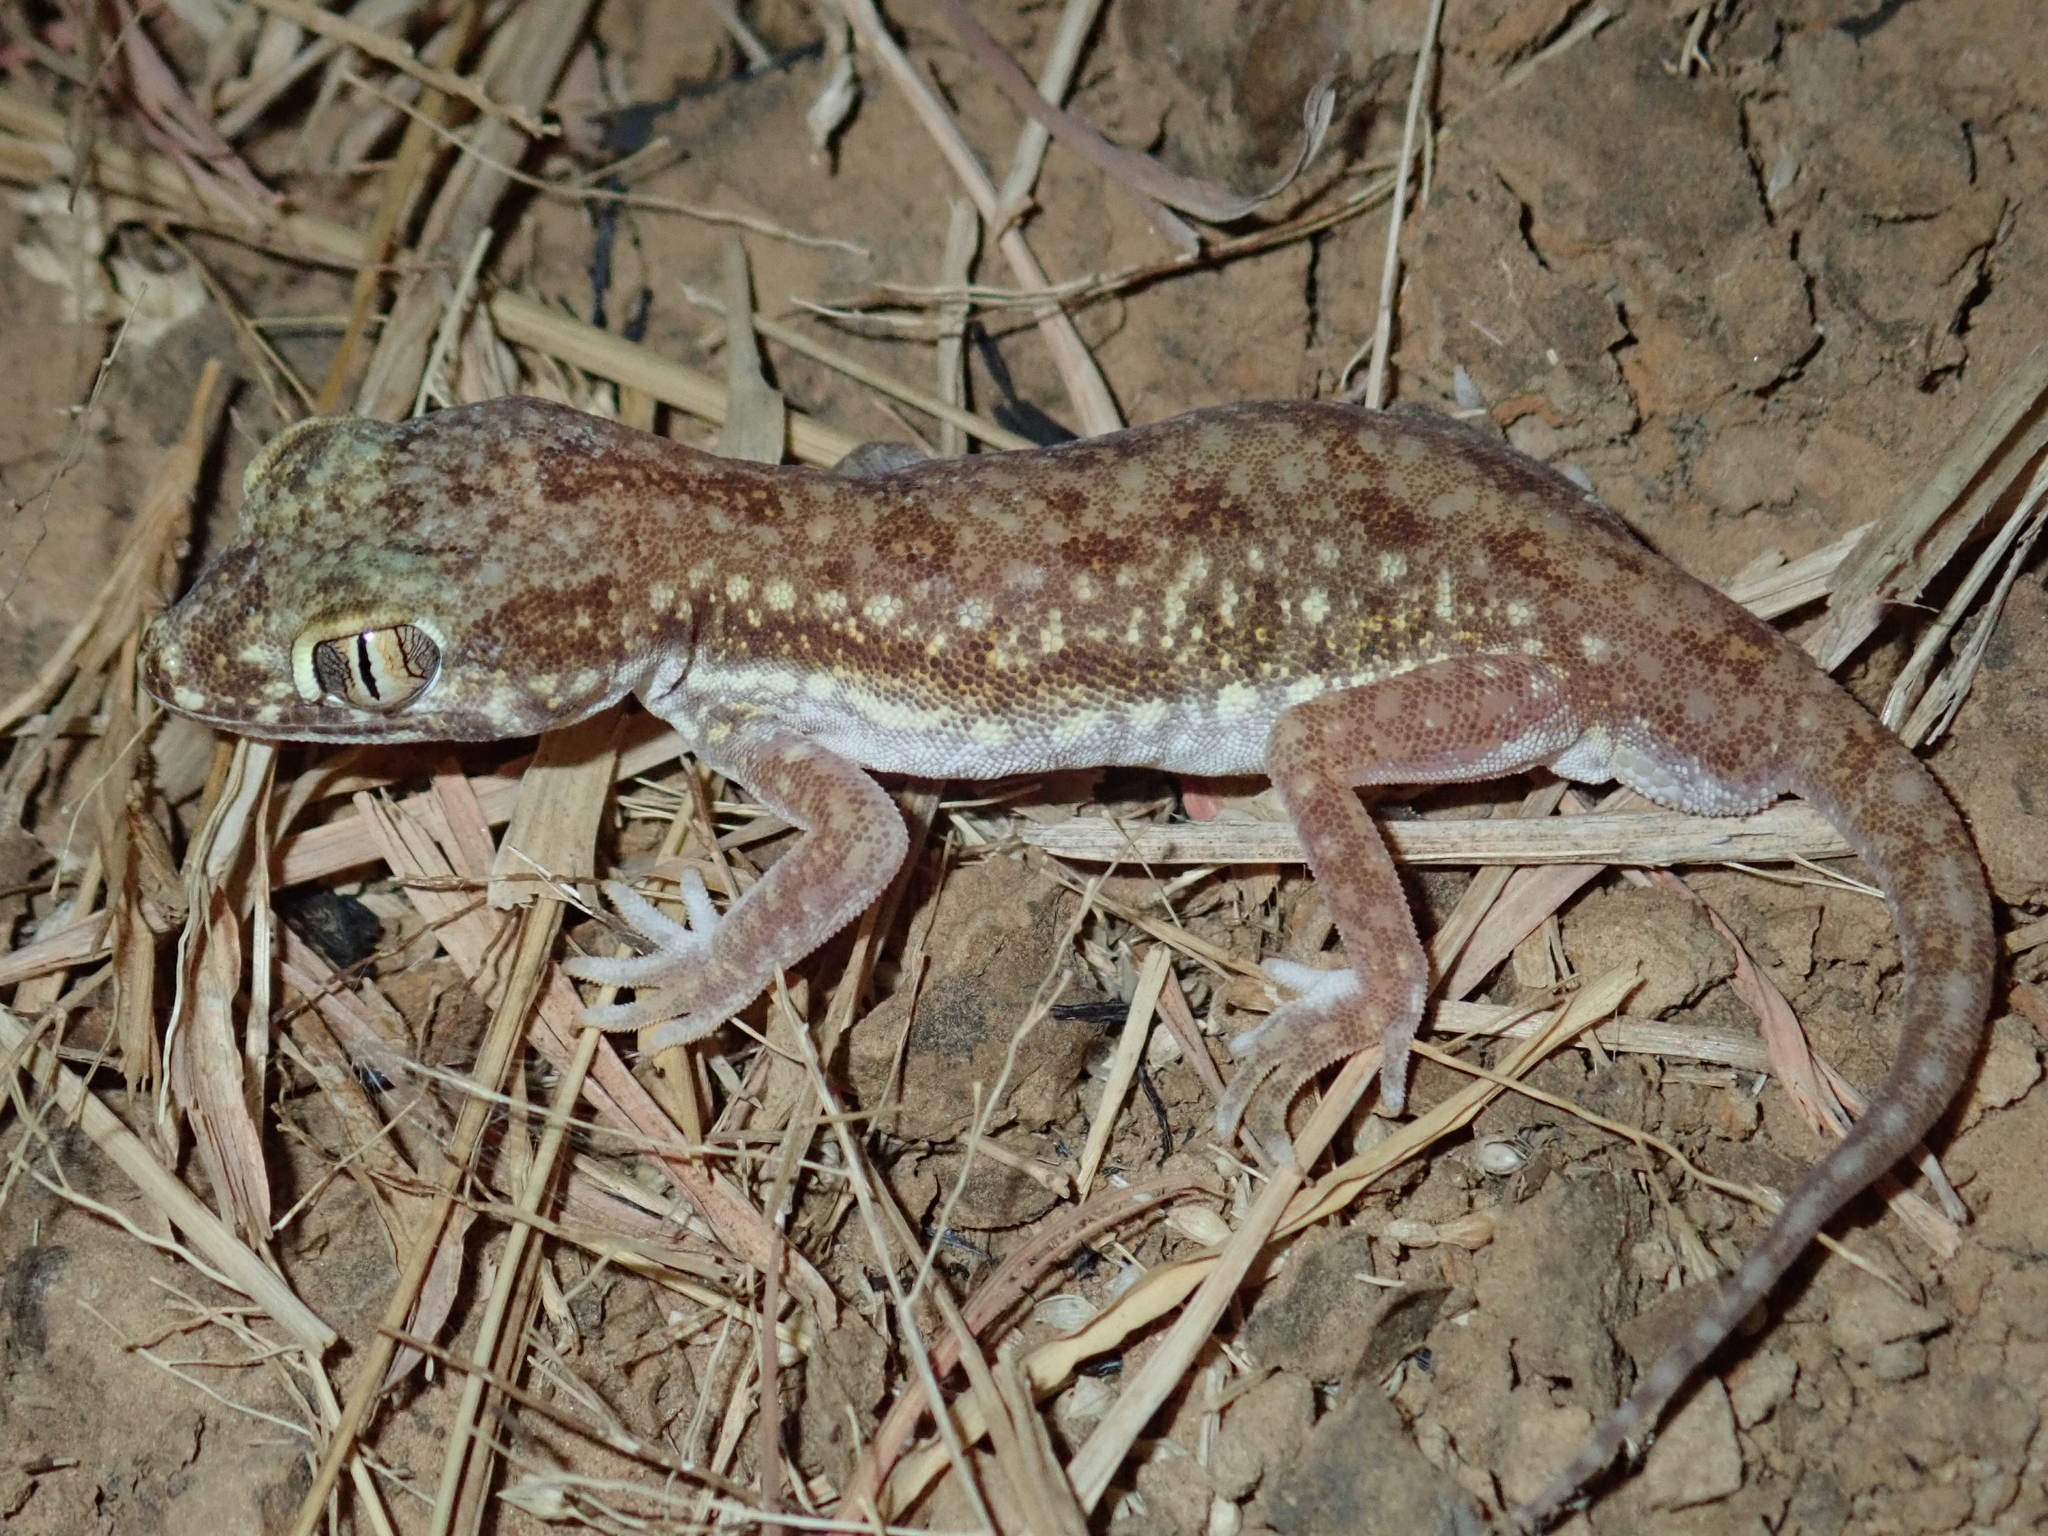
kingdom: Animalia
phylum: Chordata
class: Squamata
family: Gekkonidae
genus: Stenodactylus
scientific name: Stenodactylus petrii
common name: Anderson's short-fingered gecko
